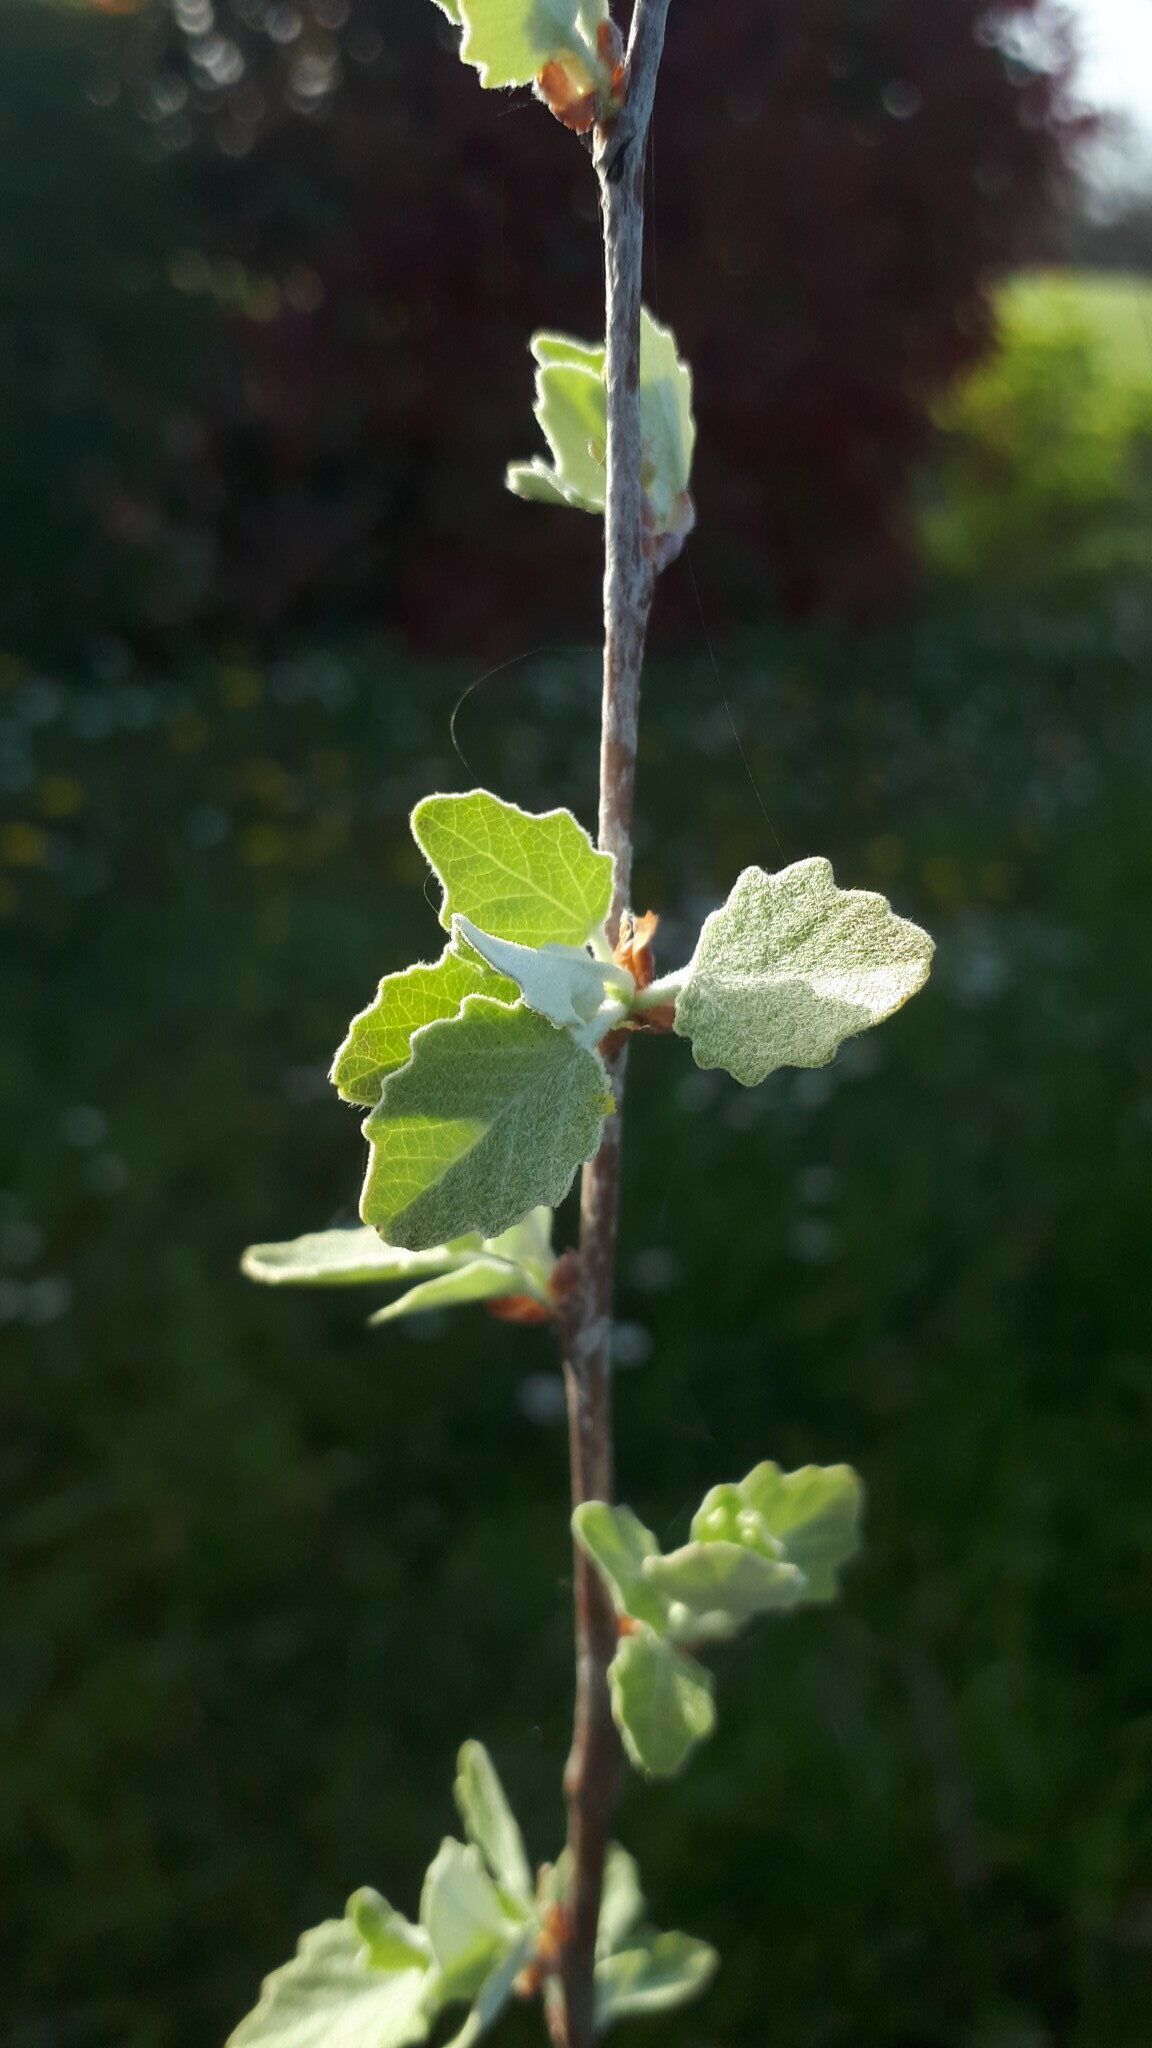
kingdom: Plantae
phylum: Tracheophyta
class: Magnoliopsida
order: Malpighiales
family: Salicaceae
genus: Populus
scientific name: Populus alba
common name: White poplar
